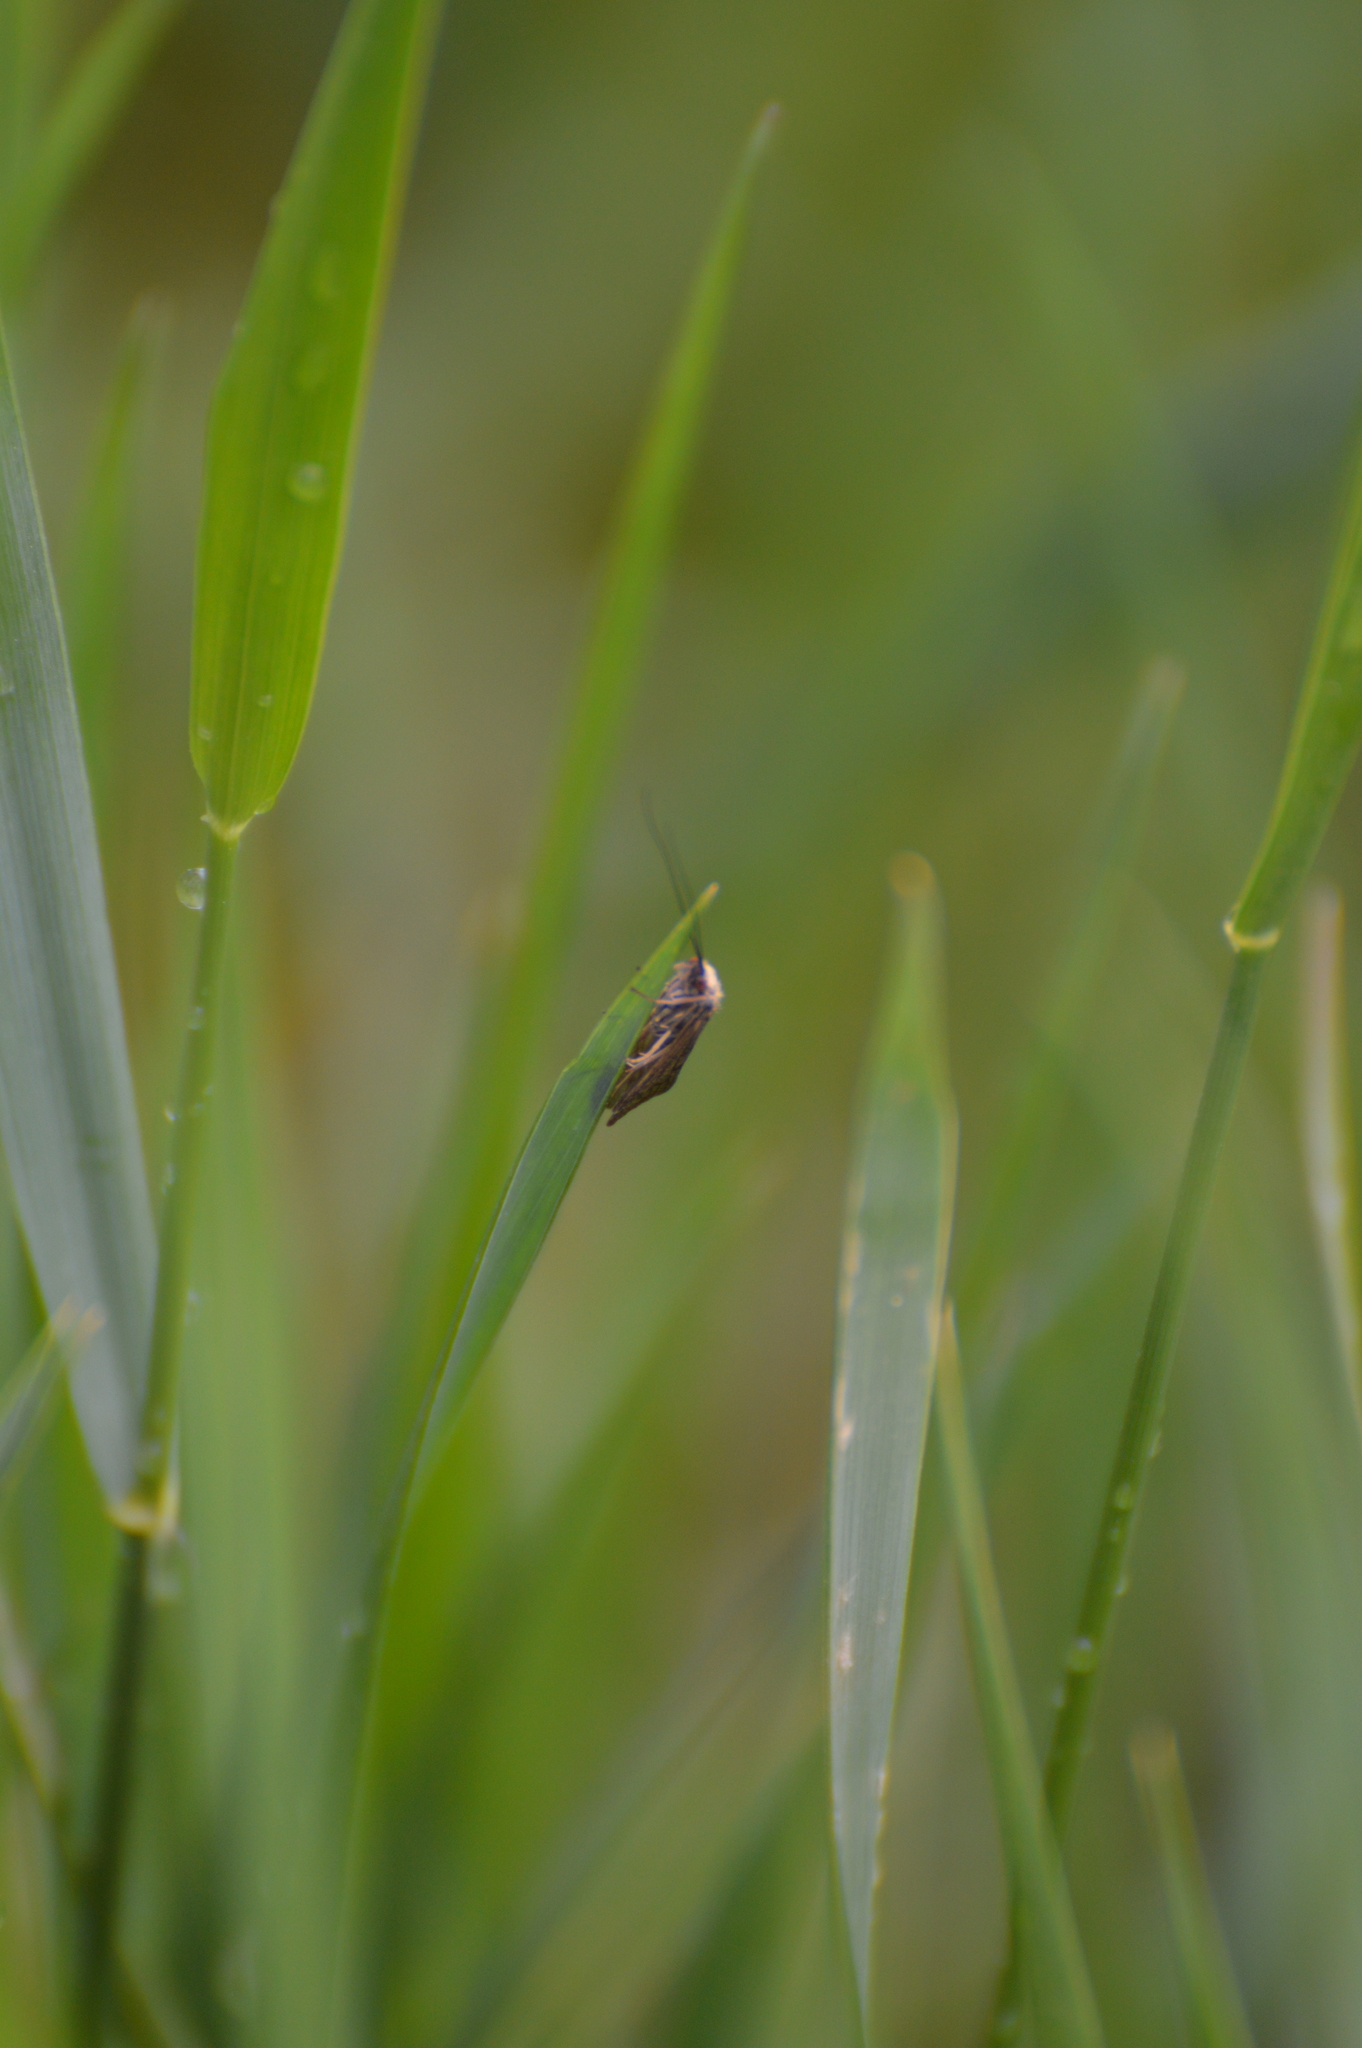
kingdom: Animalia
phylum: Arthropoda
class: Insecta
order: Trichoptera
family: Hydropsychidae
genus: Hydropsyche
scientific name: Hydropsyche
